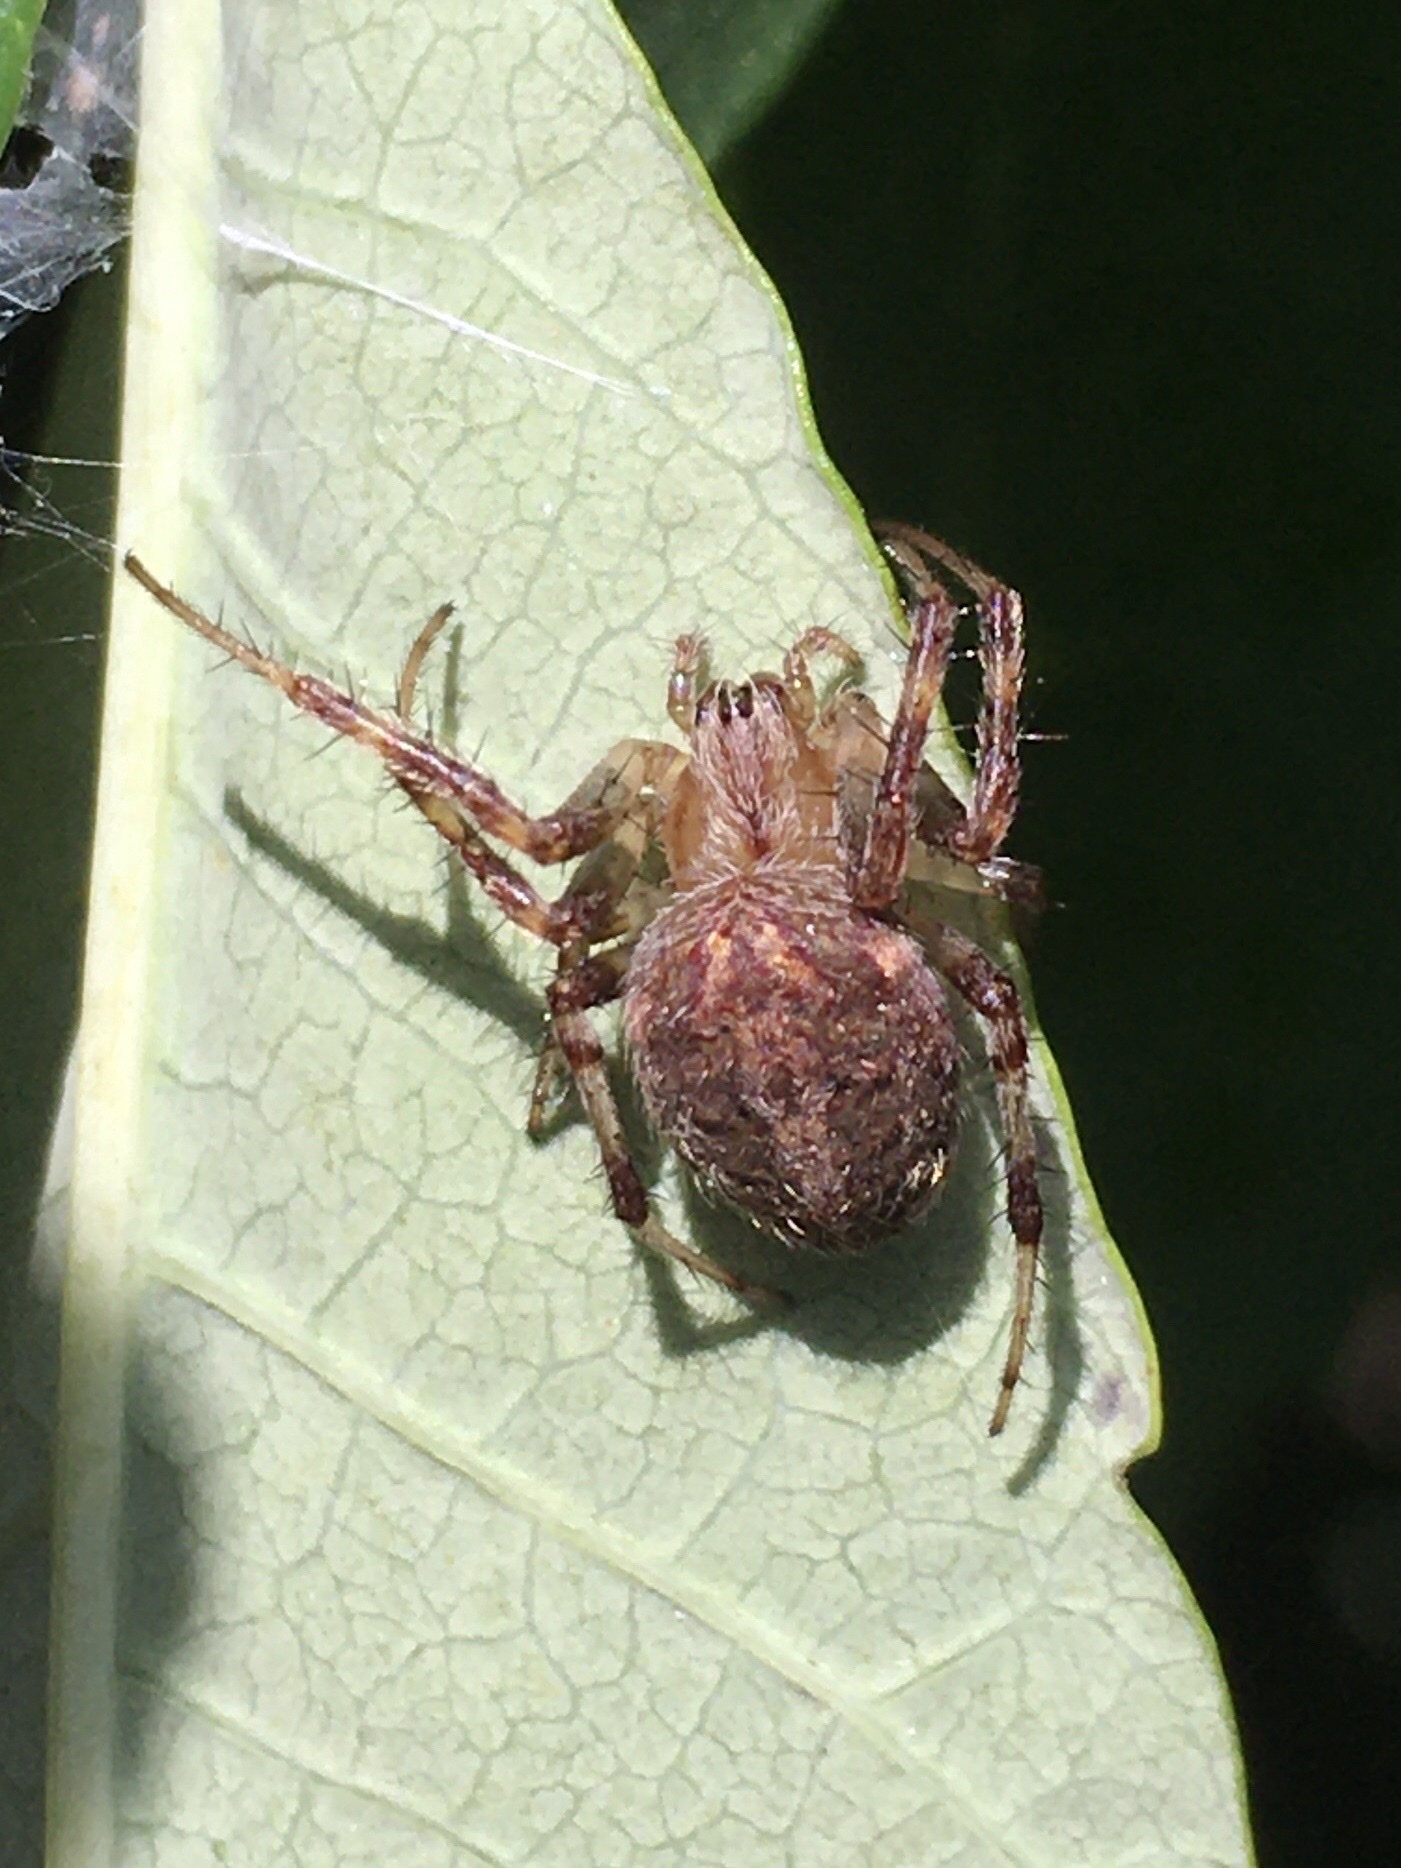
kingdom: Animalia
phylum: Arthropoda
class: Arachnida
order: Araneae
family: Araneidae
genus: Neoscona
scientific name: Neoscona arabesca
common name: Orb weavers
